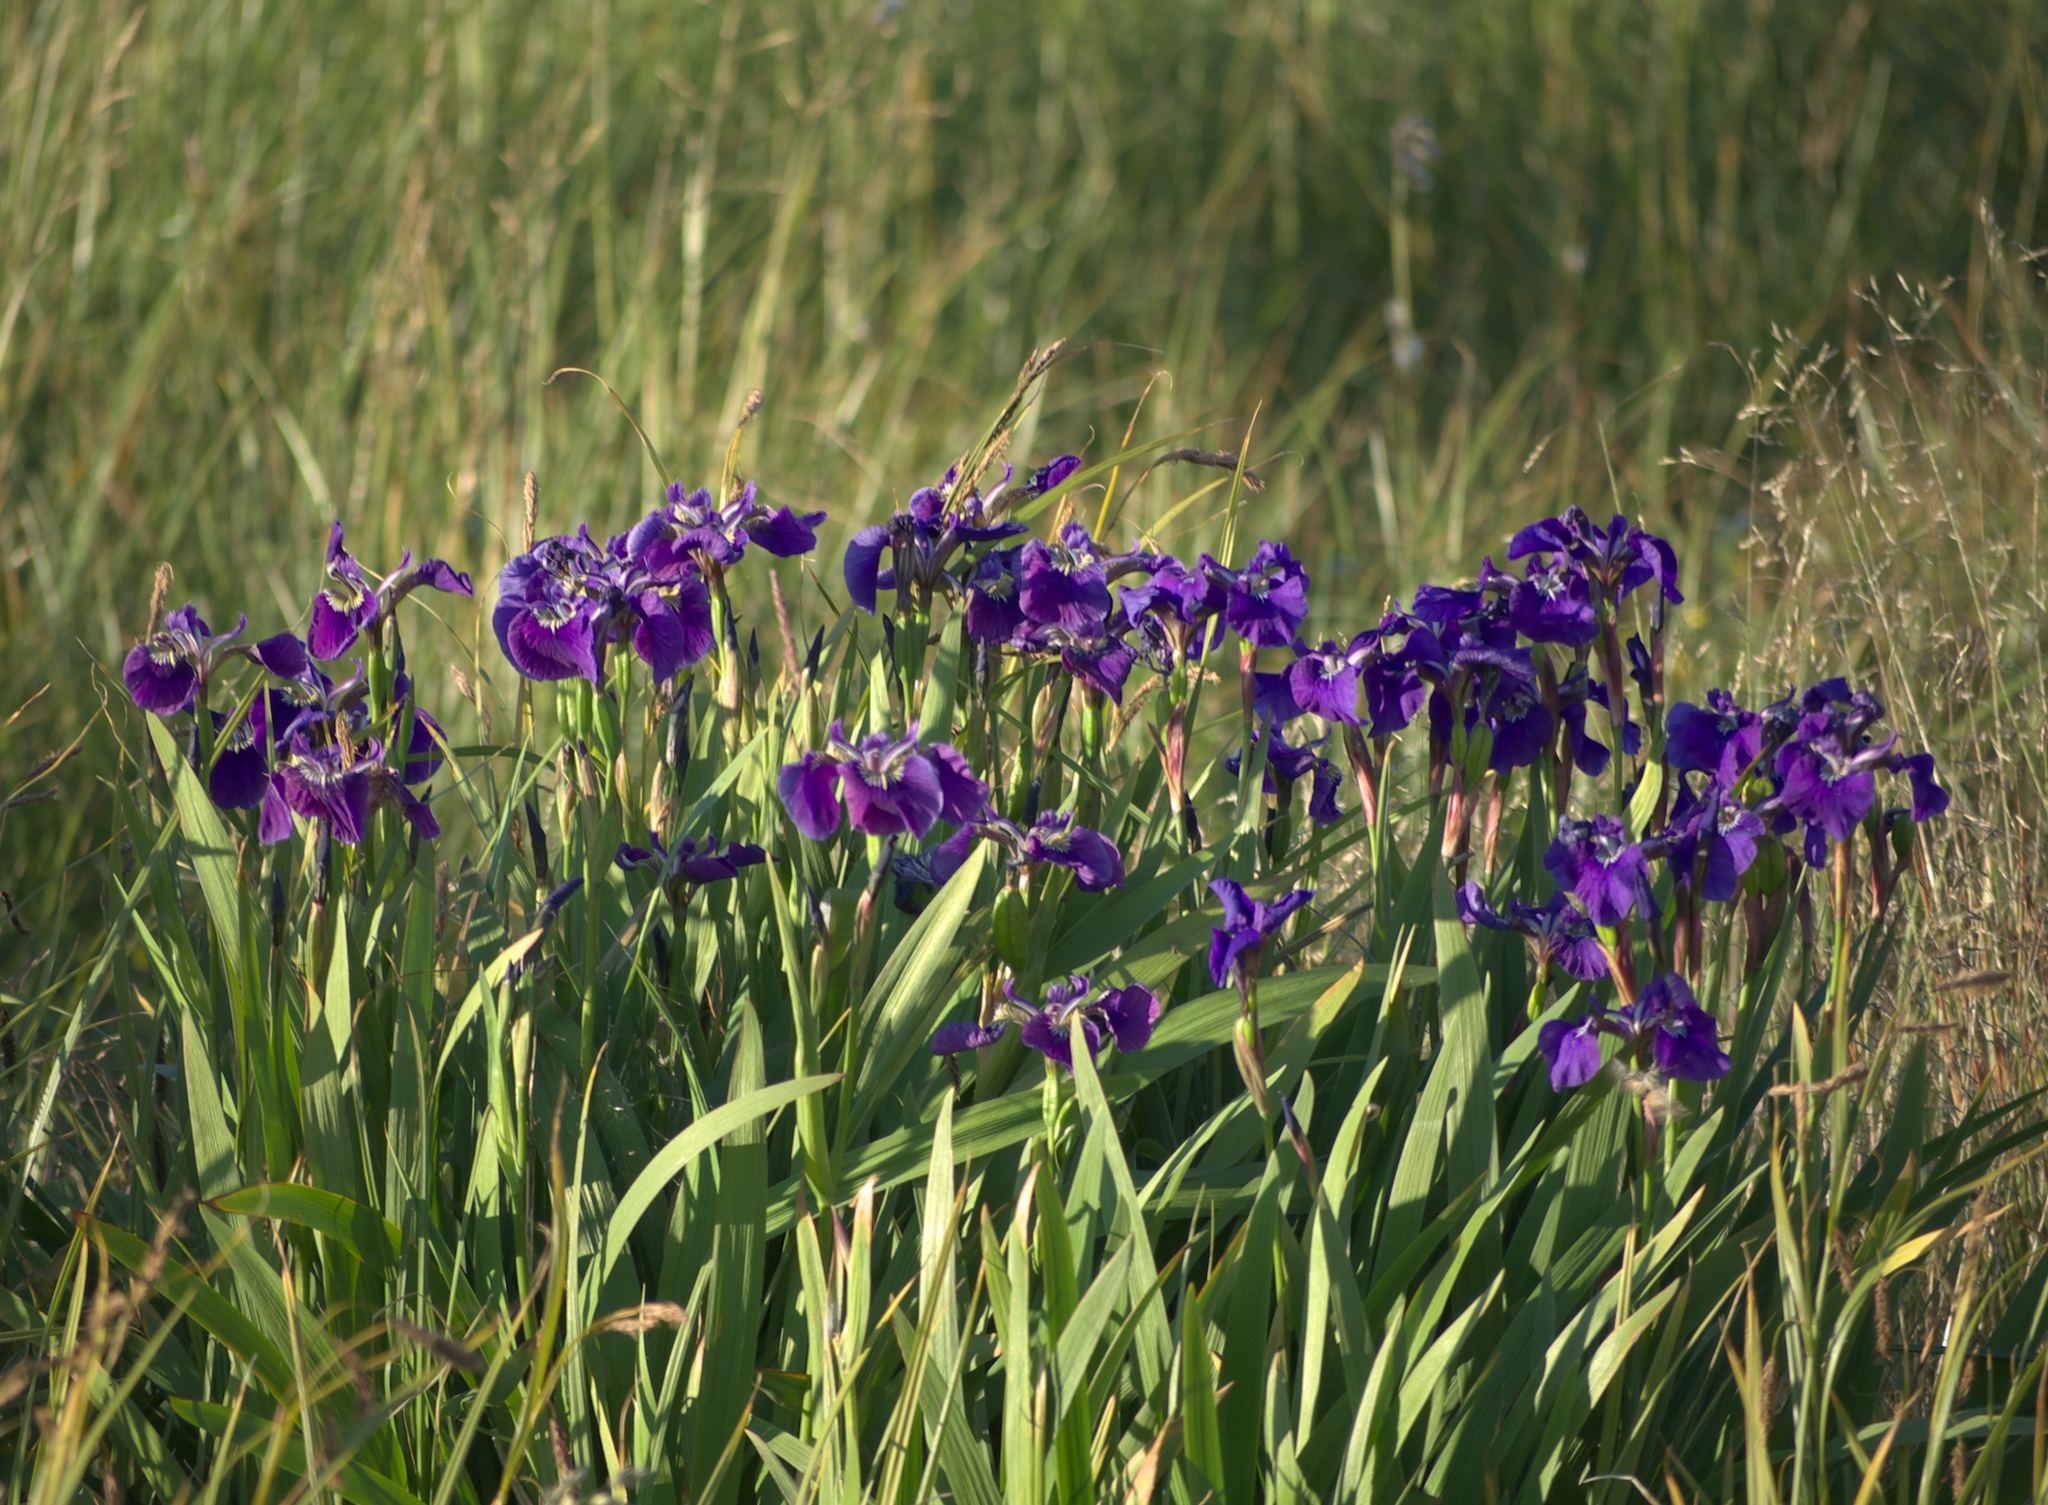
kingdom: Plantae
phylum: Tracheophyta
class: Liliopsida
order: Asparagales
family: Iridaceae
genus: Iris
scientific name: Iris setosa
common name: Arctic blue flag
